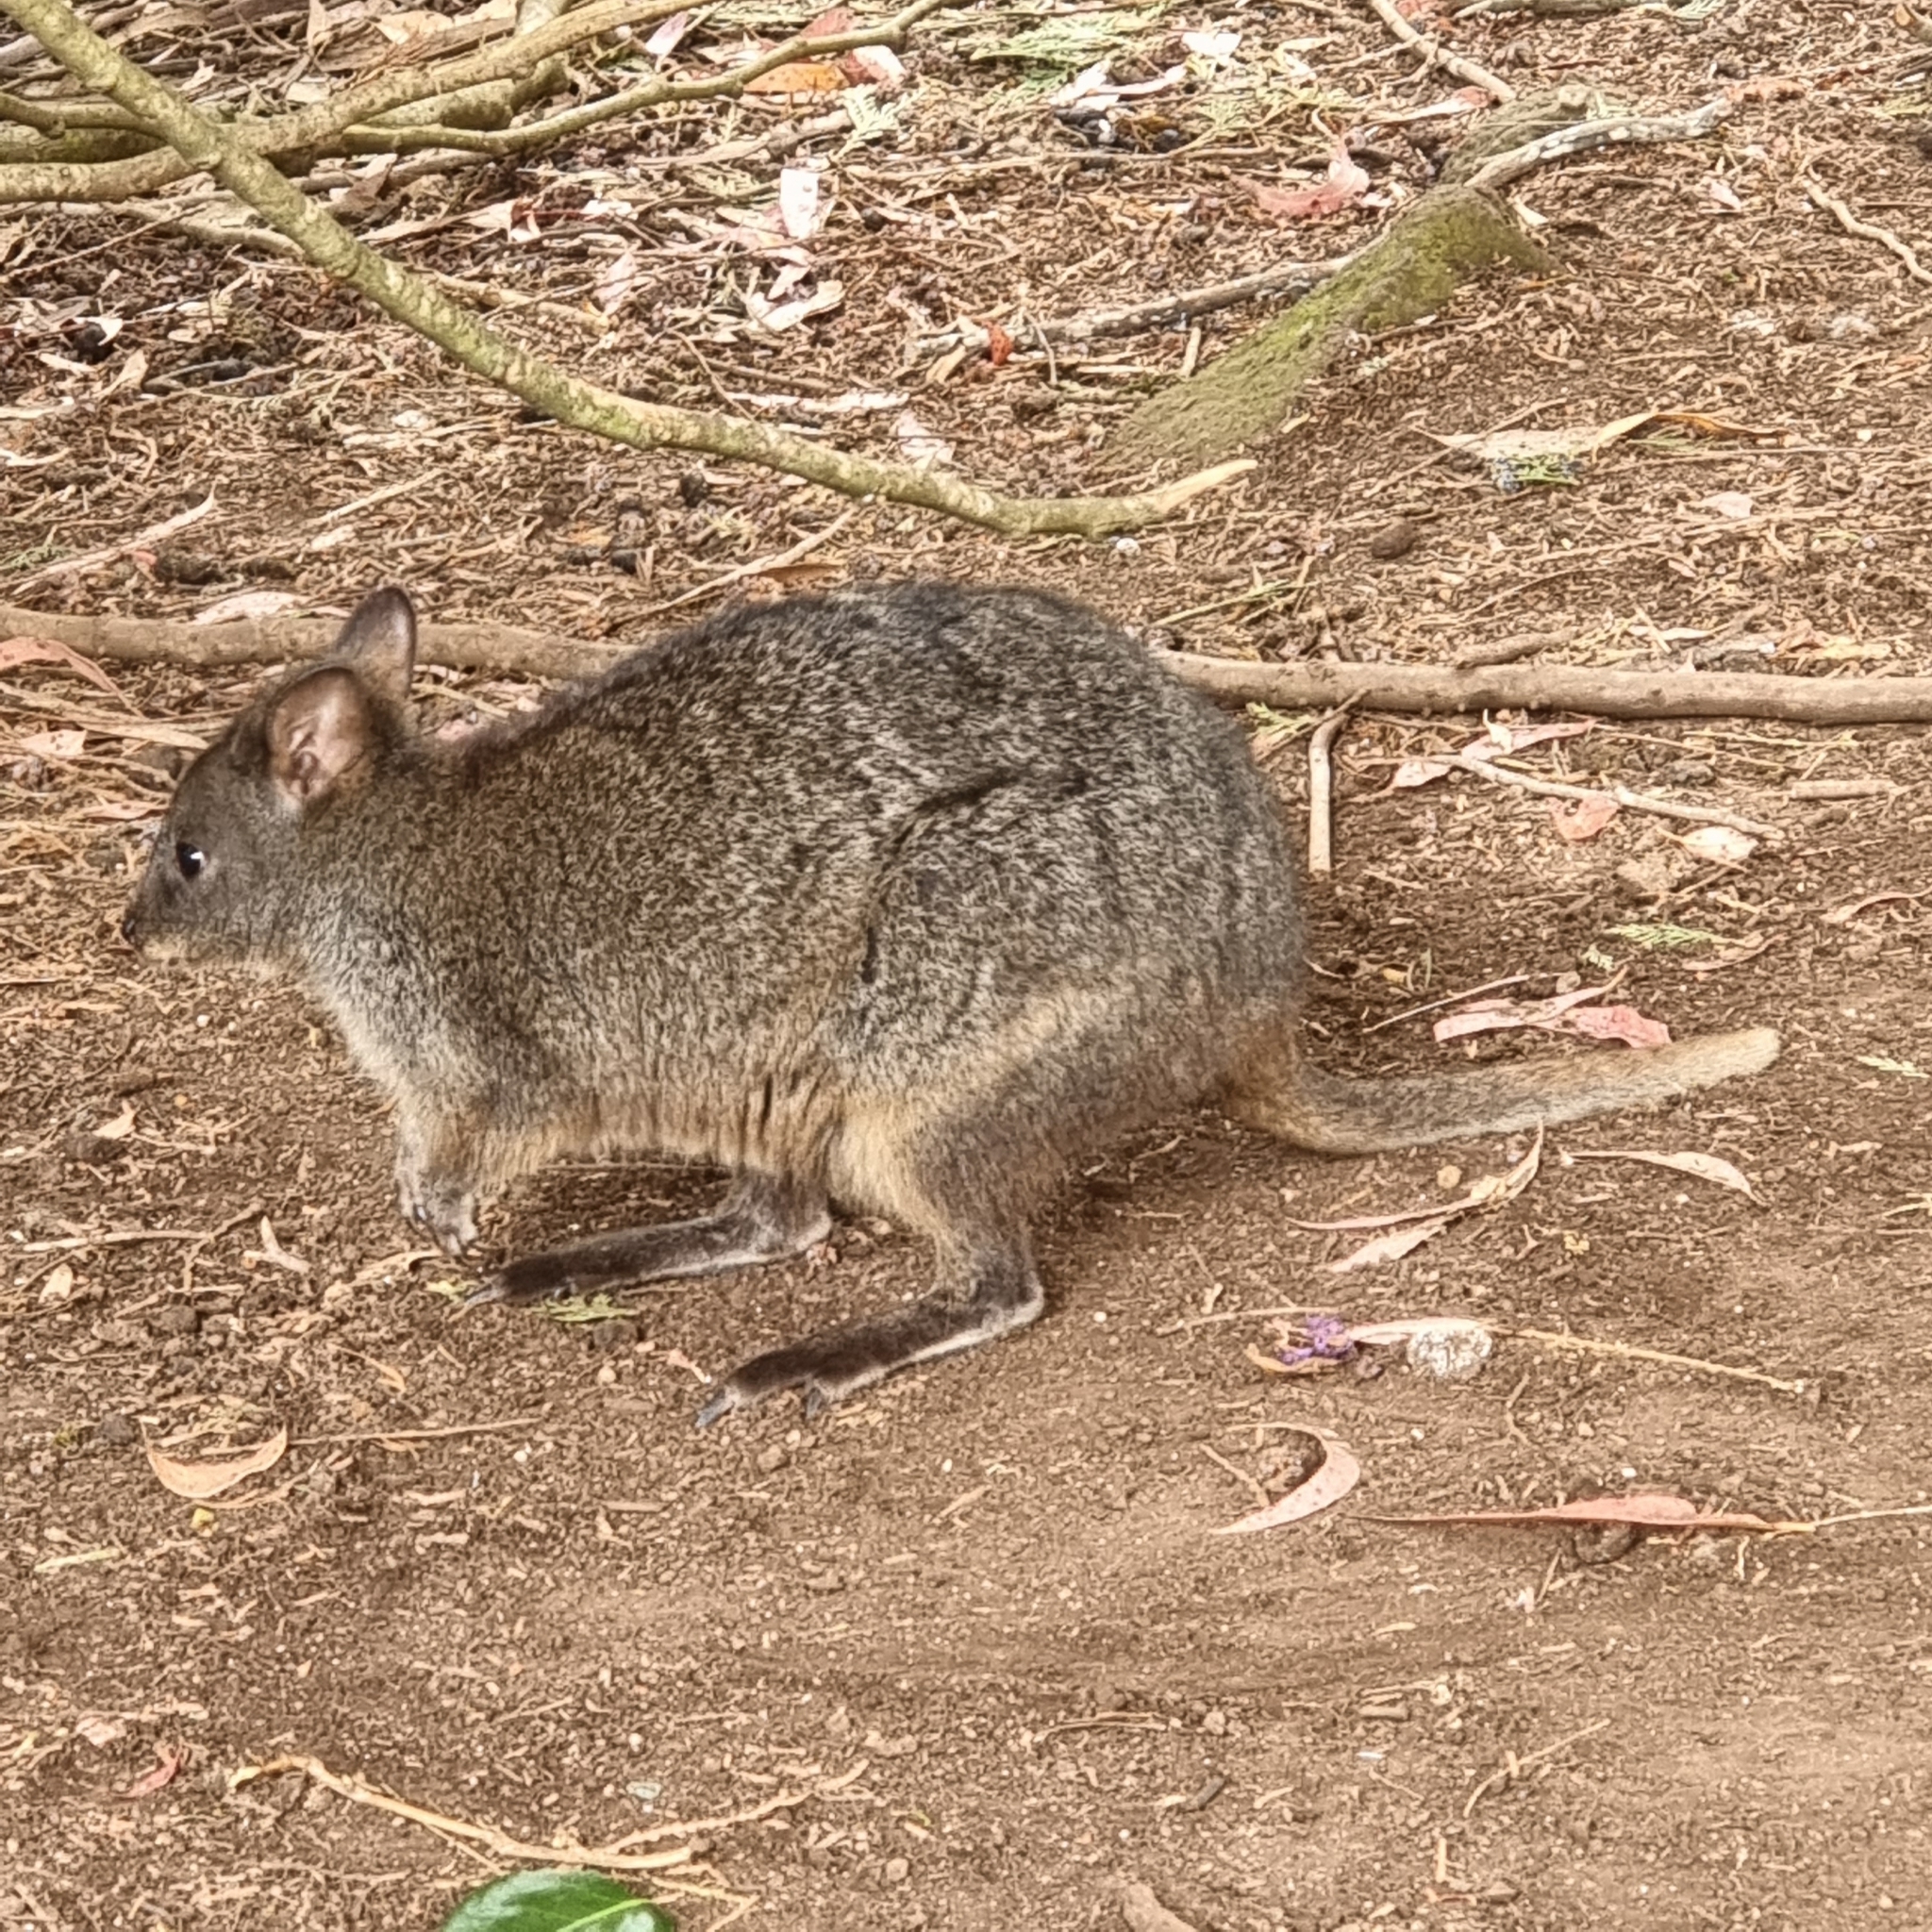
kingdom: Animalia
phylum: Chordata
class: Mammalia
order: Diprotodontia
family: Macropodidae
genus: Thylogale
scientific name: Thylogale billardierii
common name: Tasmanian pademelon
